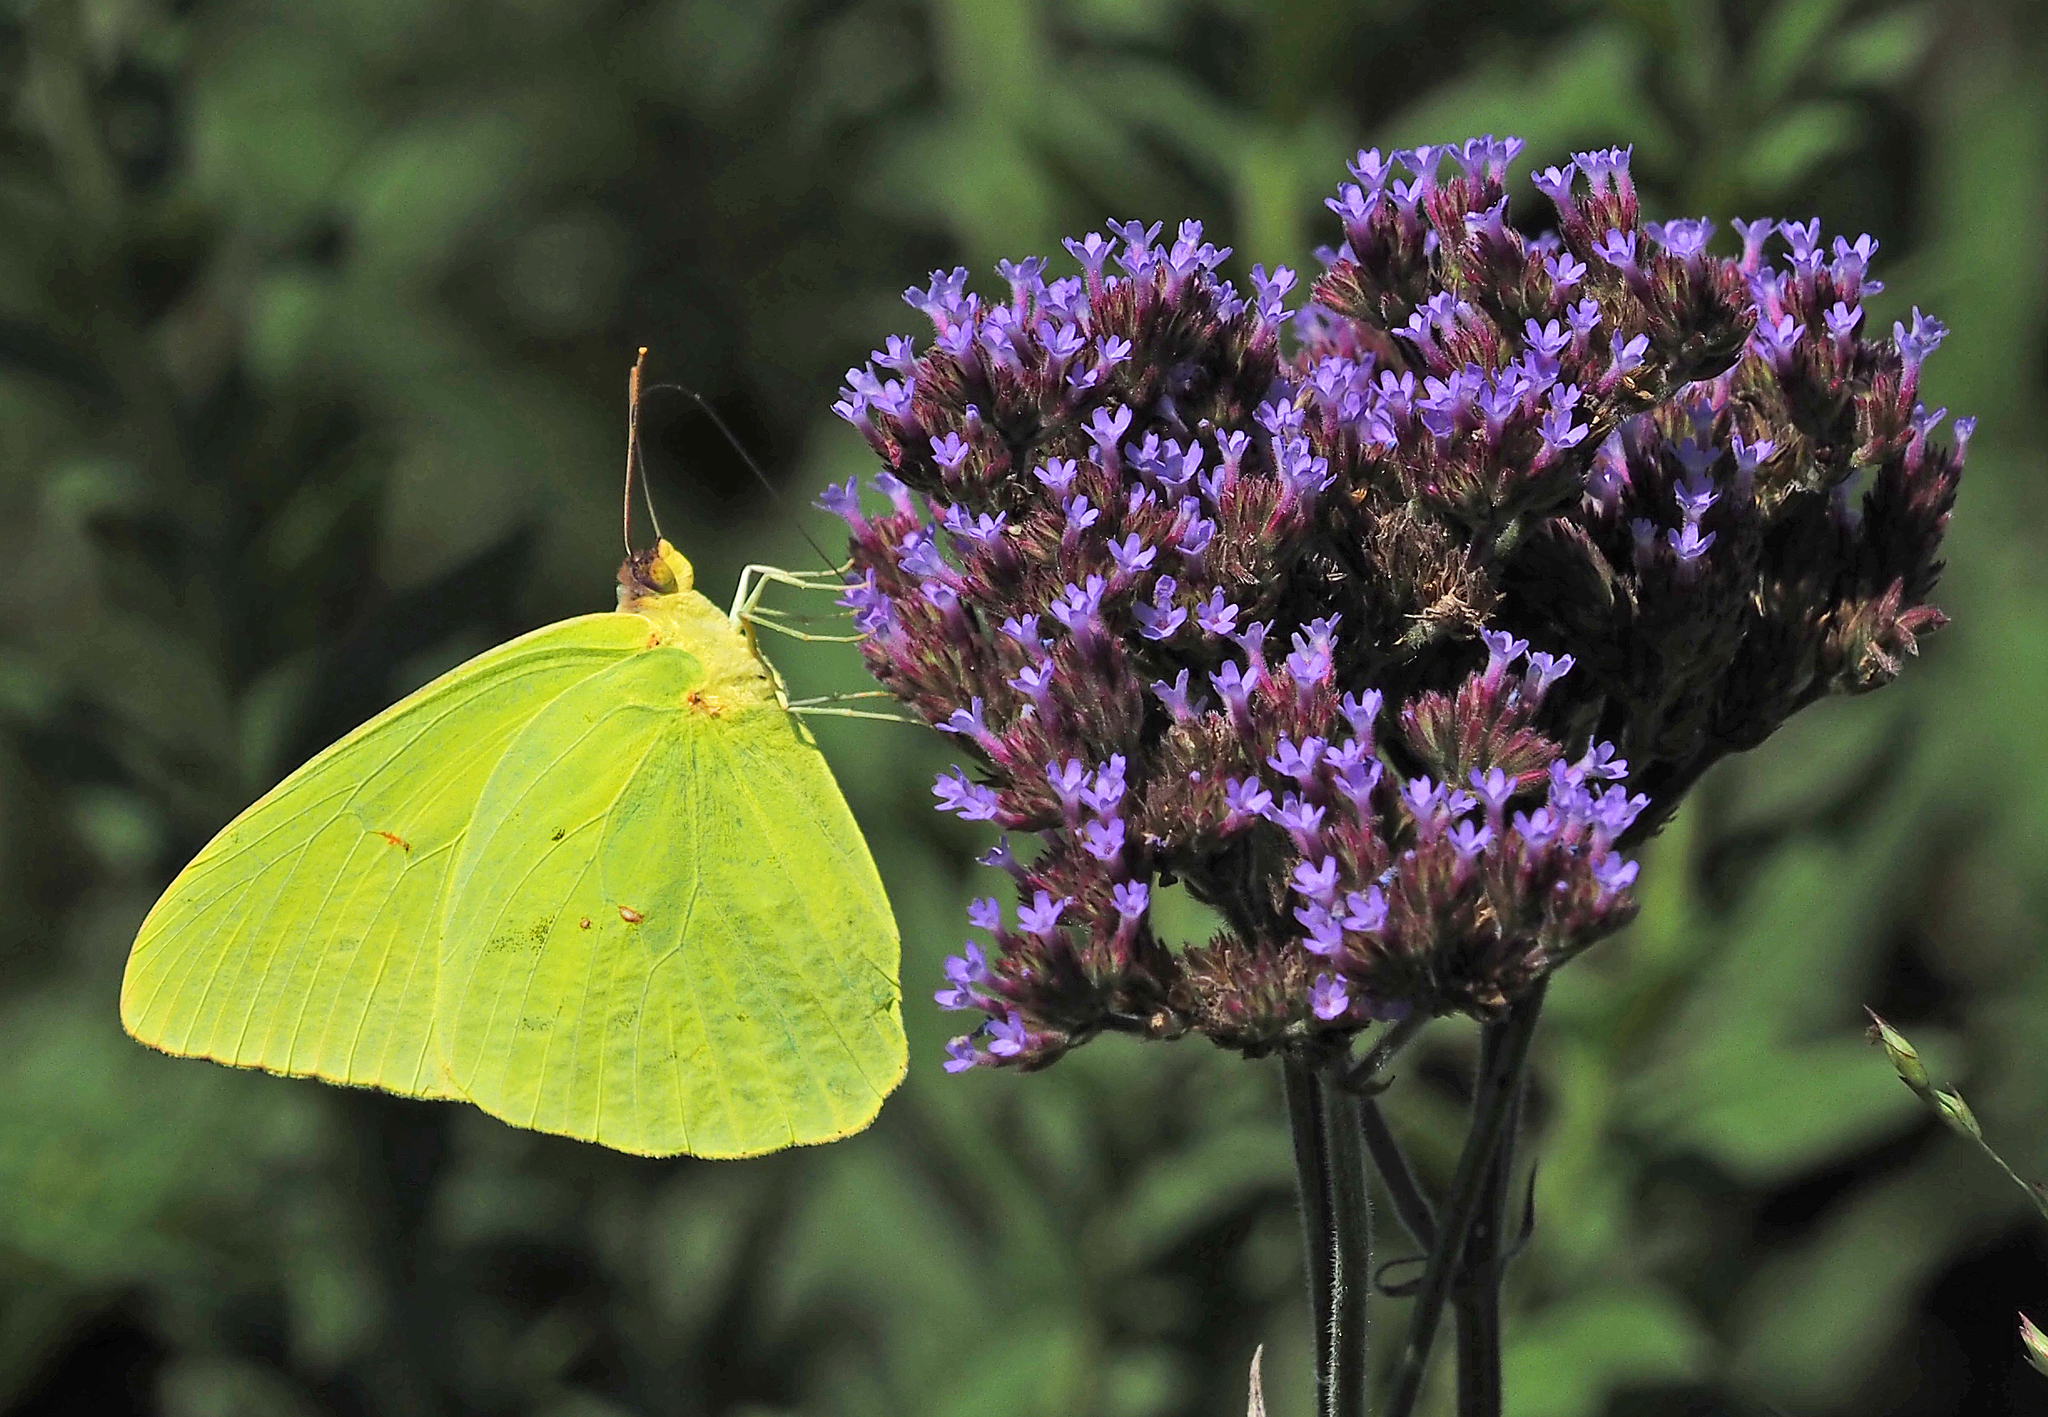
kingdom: Animalia
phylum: Arthropoda
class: Insecta
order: Lepidoptera
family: Pieridae
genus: Phoebis
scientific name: Phoebis sennae
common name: Cloudless sulphur
